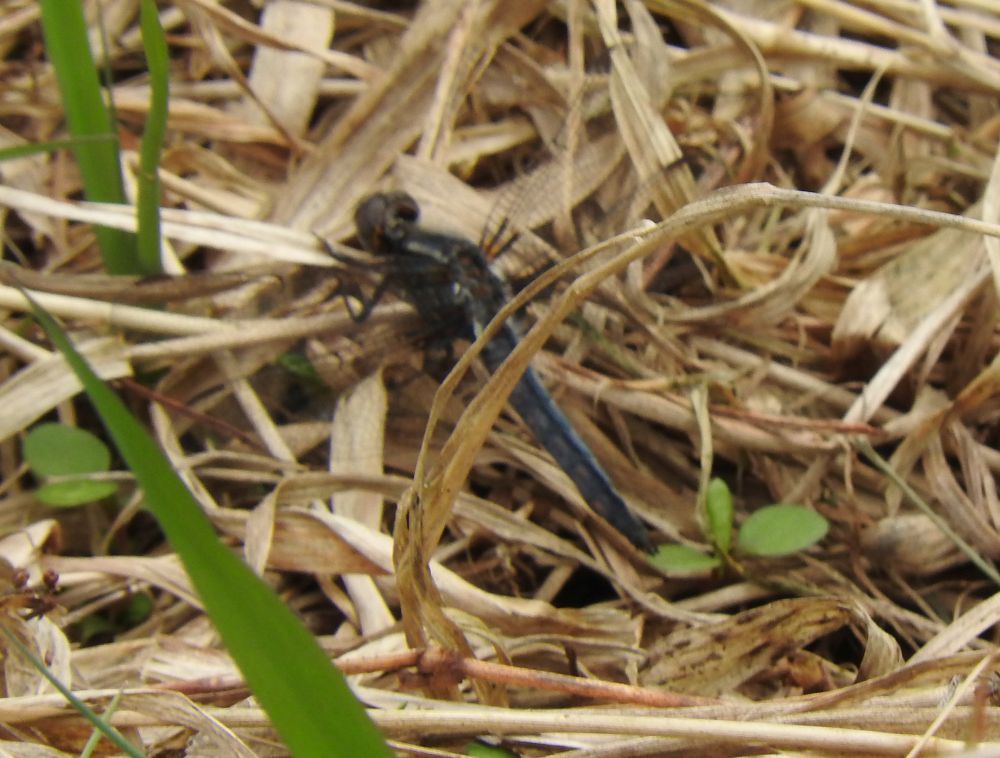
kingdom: Animalia
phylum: Arthropoda
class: Insecta
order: Odonata
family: Libellulidae
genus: Ladona
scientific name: Ladona deplanata
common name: Blue corporal
